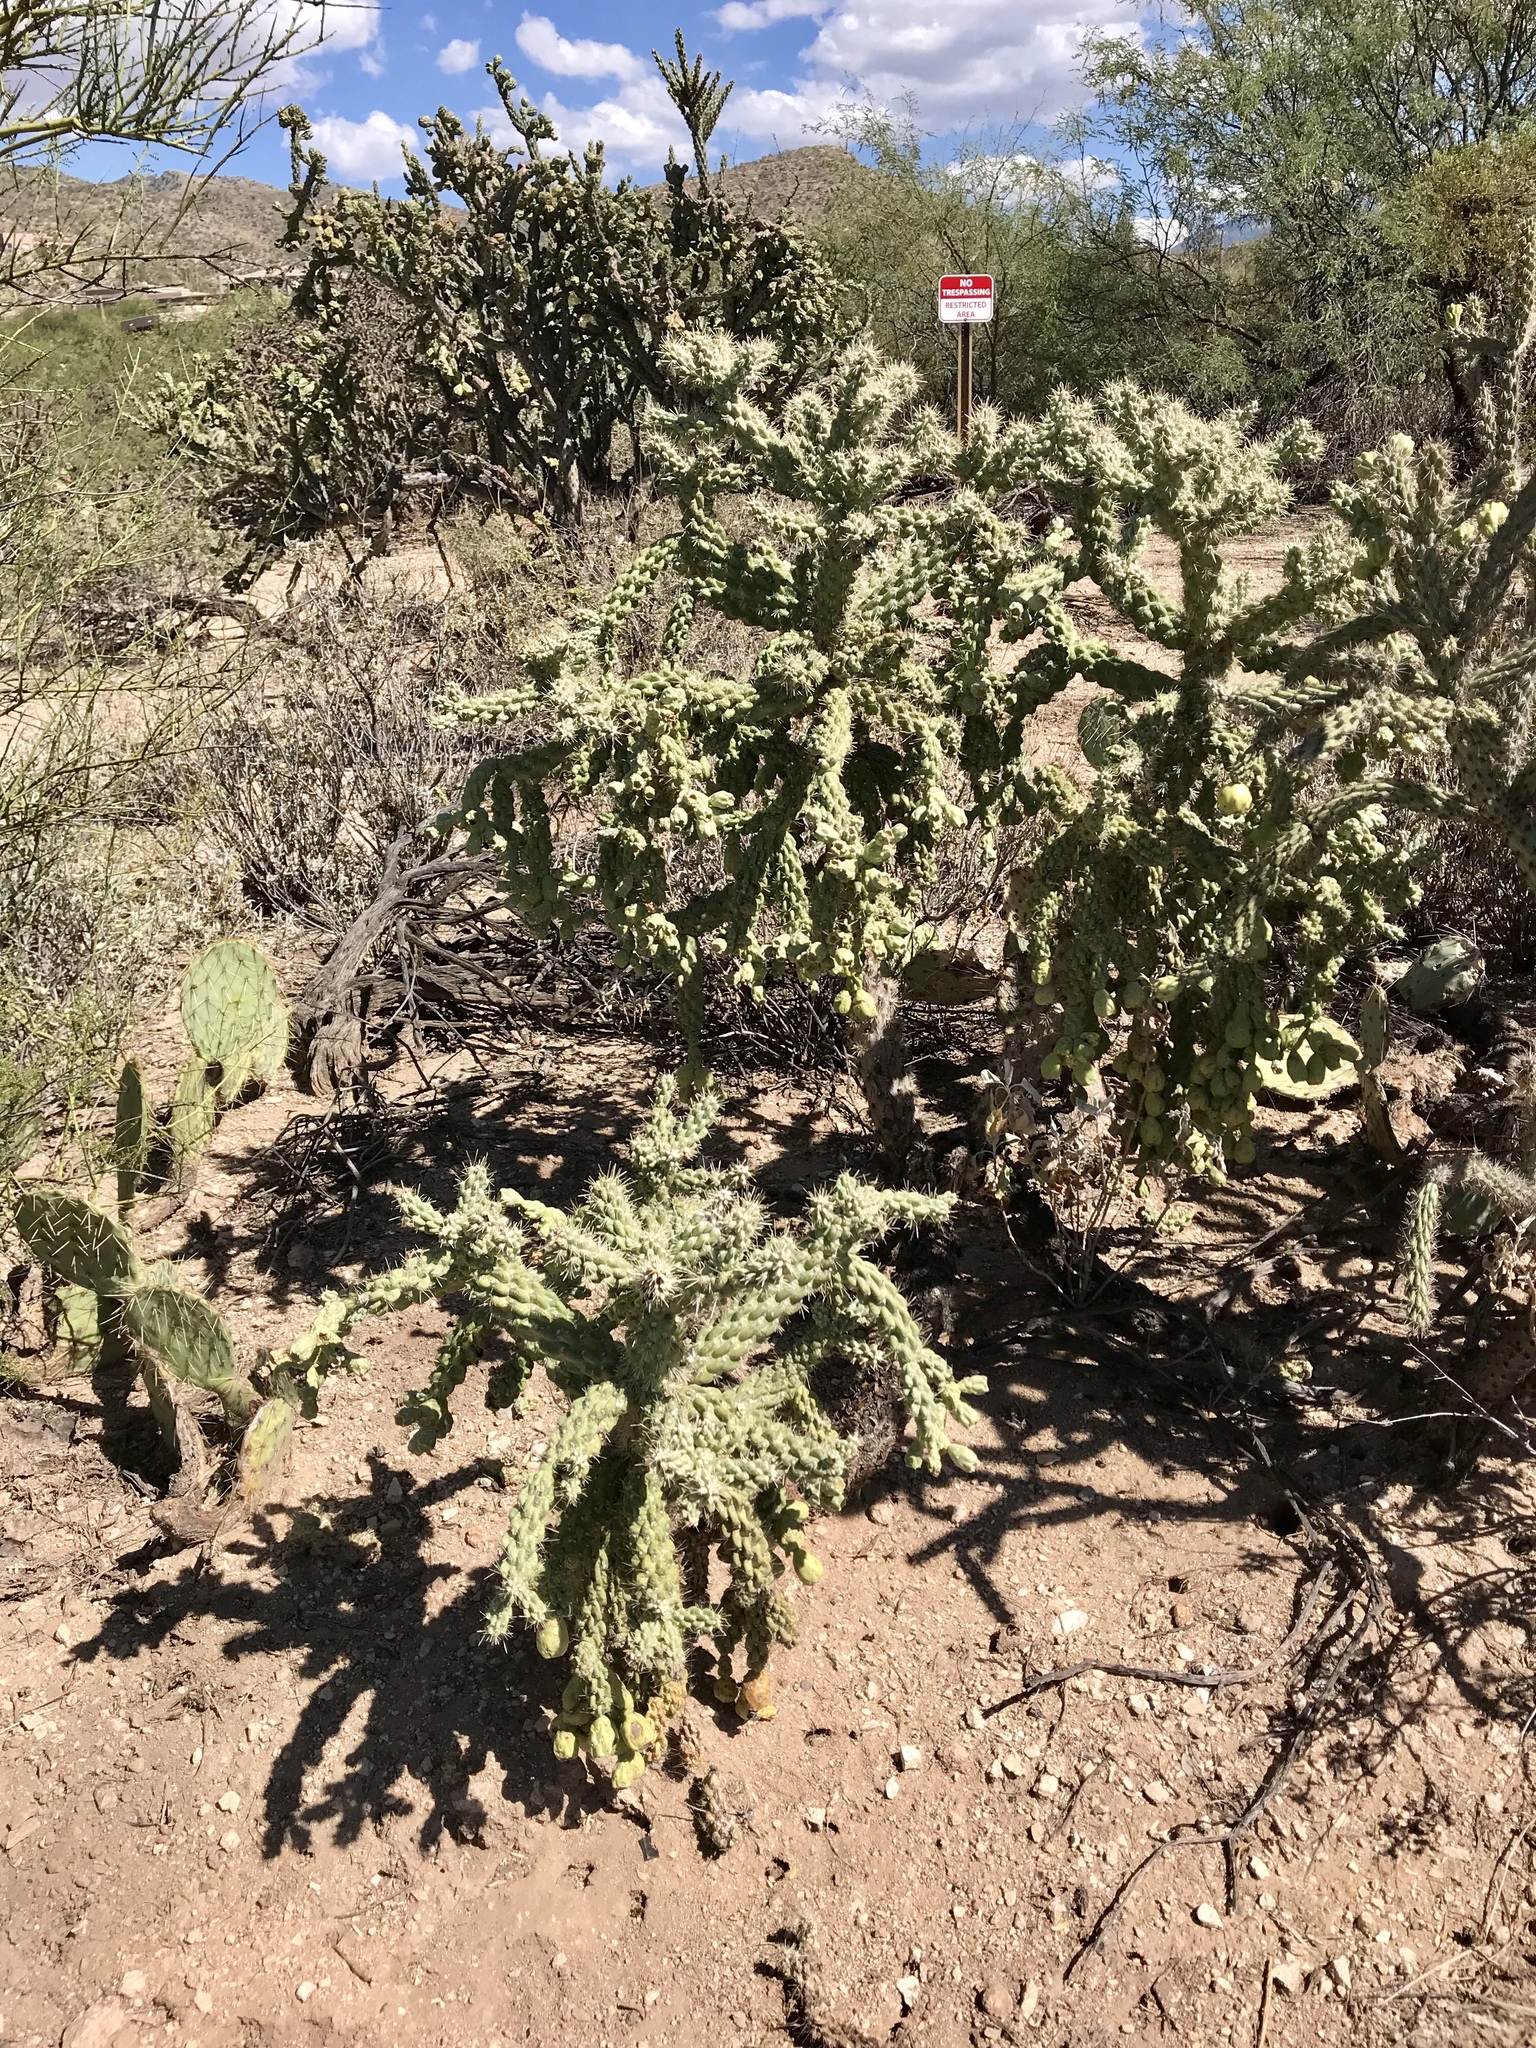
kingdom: Plantae
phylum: Tracheophyta
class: Magnoliopsida
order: Caryophyllales
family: Cactaceae
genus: Cylindropuntia
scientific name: Cylindropuntia fulgida
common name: Jumping cholla
